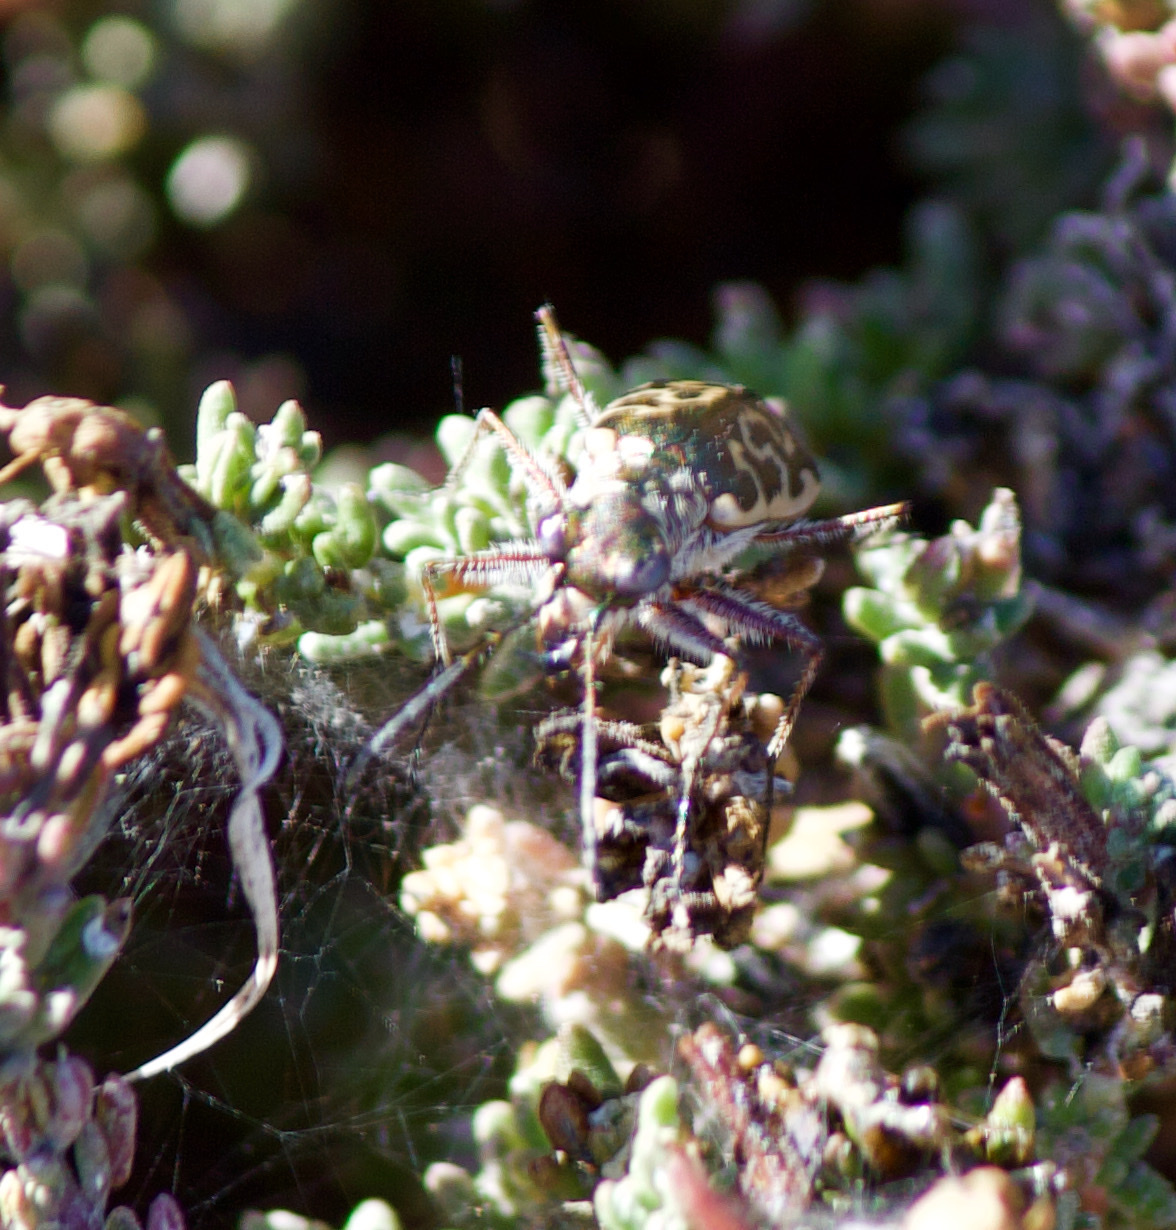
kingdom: Animalia
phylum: Arthropoda
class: Insecta
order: Coleoptera
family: Carabidae
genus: Cicindela
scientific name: Cicindela trifasciata
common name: Mudflat tiger beetle
